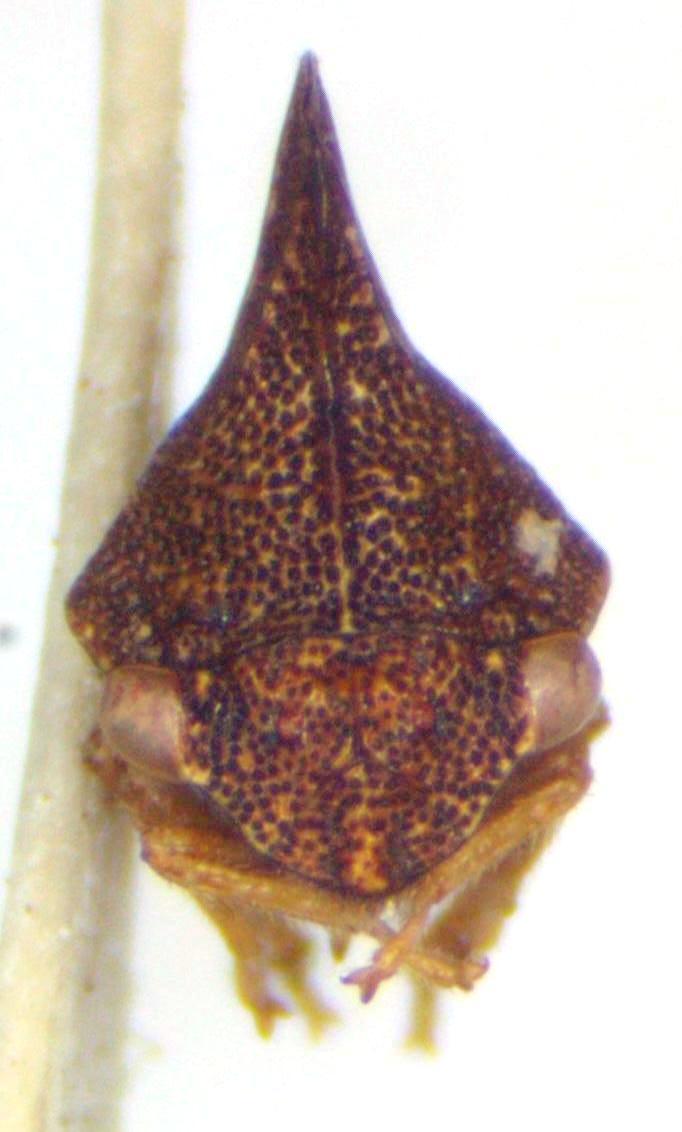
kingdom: Animalia
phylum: Arthropoda
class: Insecta
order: Hemiptera
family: Membracidae
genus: Entylia
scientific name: Entylia carinata
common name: Keeled treehopper
